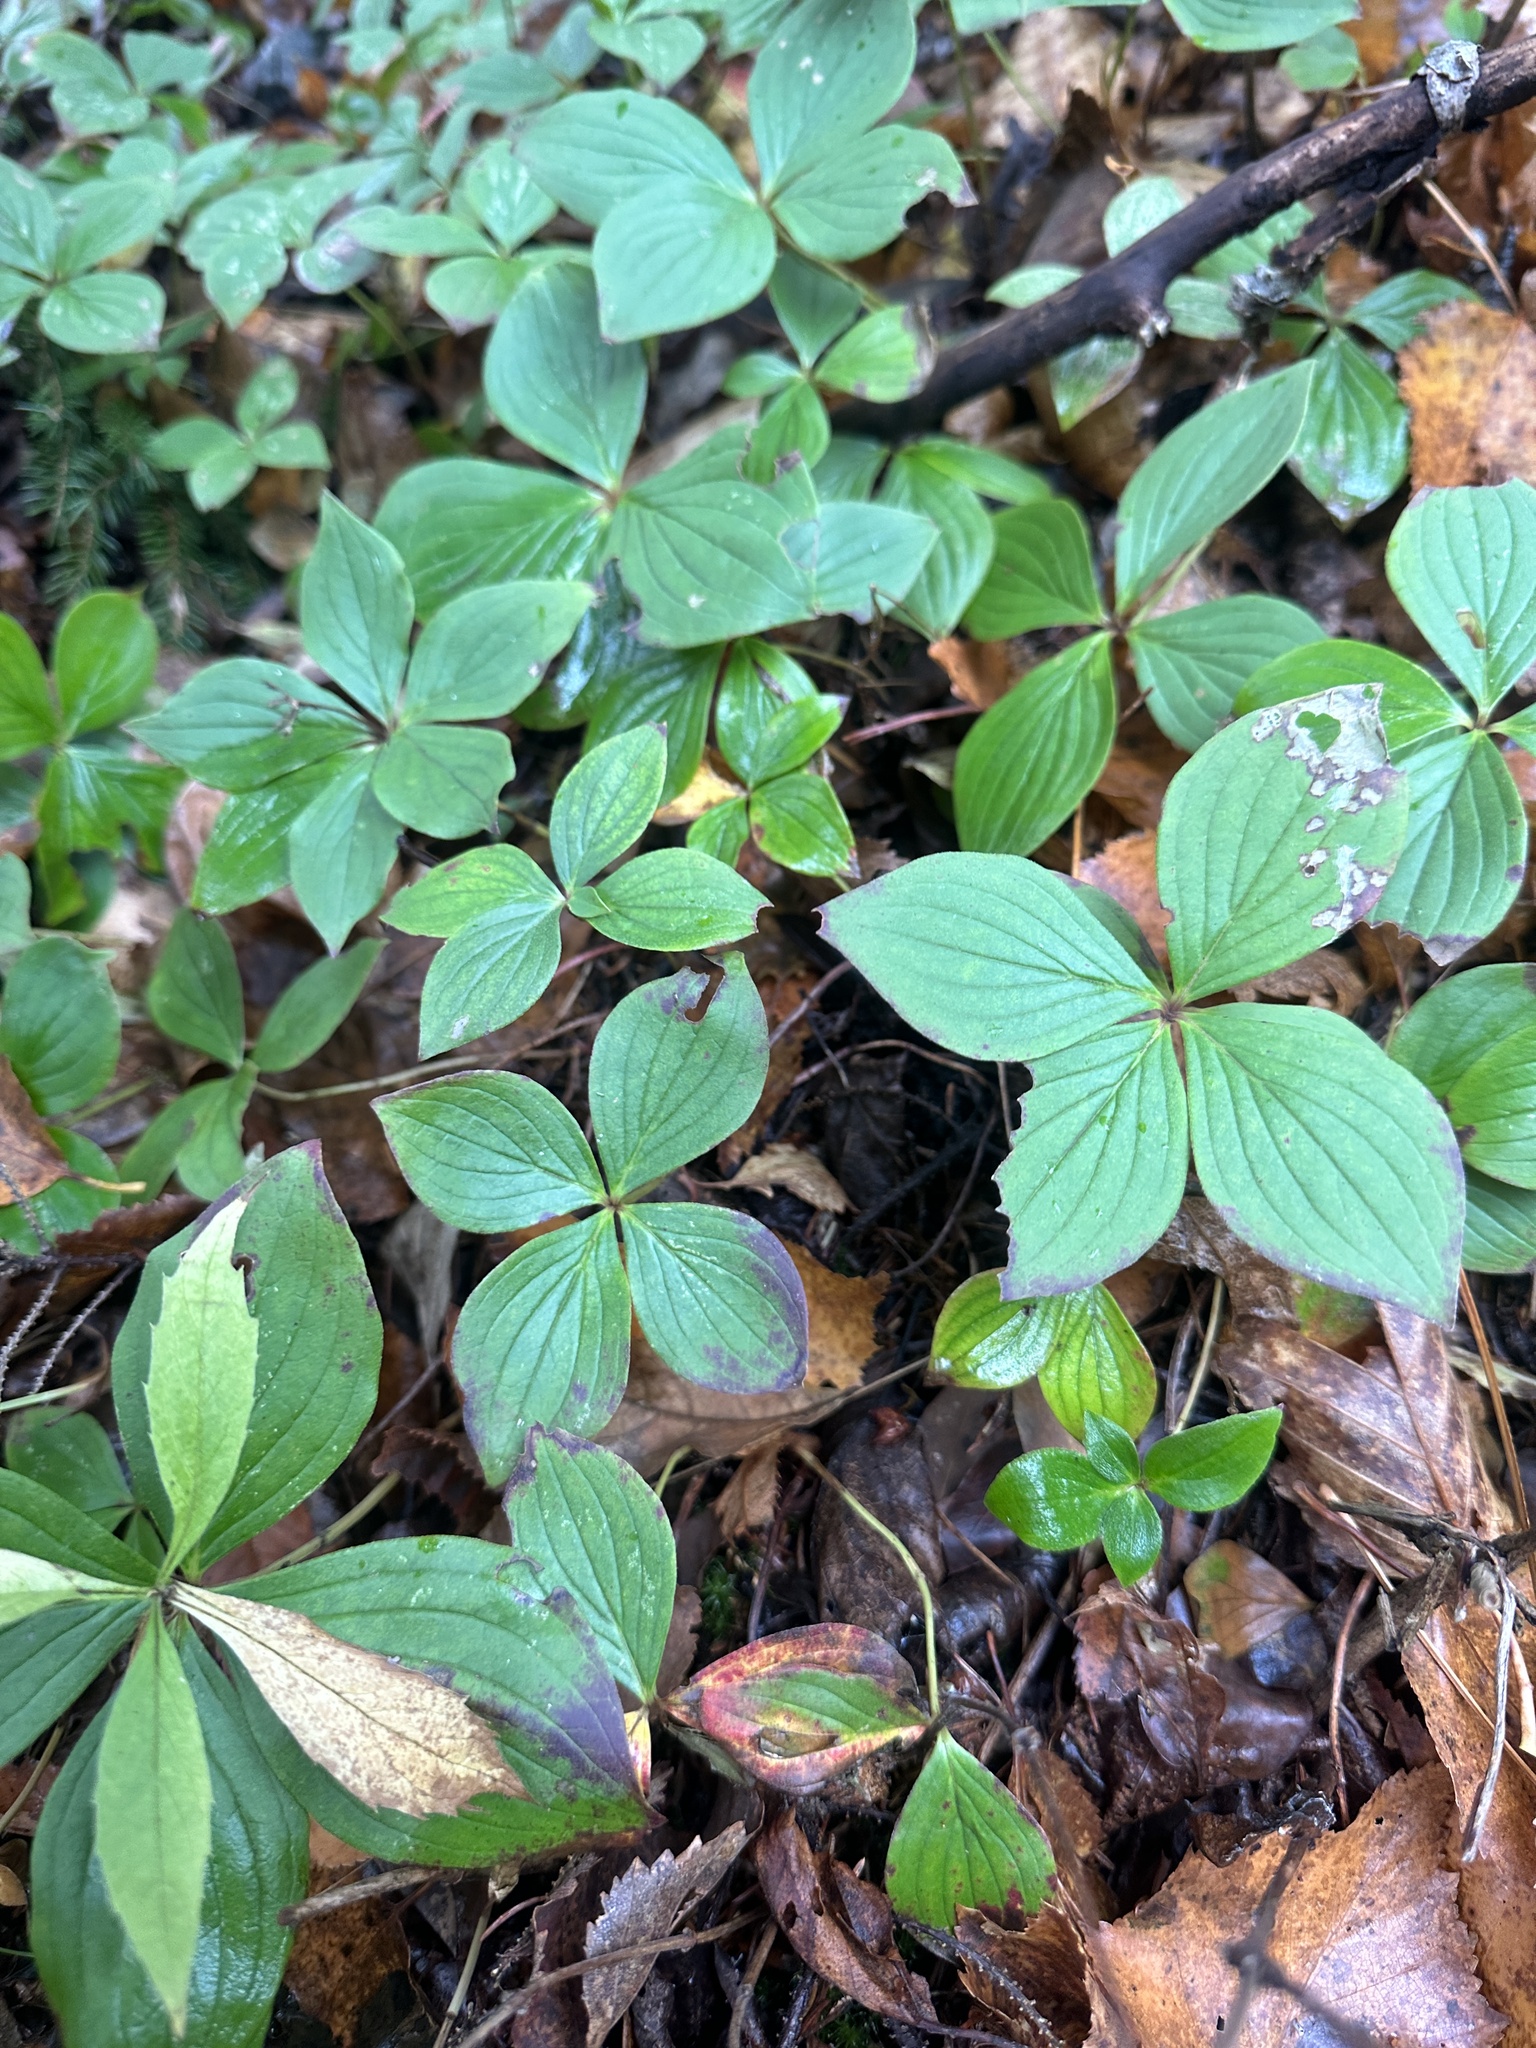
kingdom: Plantae
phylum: Tracheophyta
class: Magnoliopsida
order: Cornales
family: Cornaceae
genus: Cornus
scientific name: Cornus canadensis
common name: Creeping dogwood
